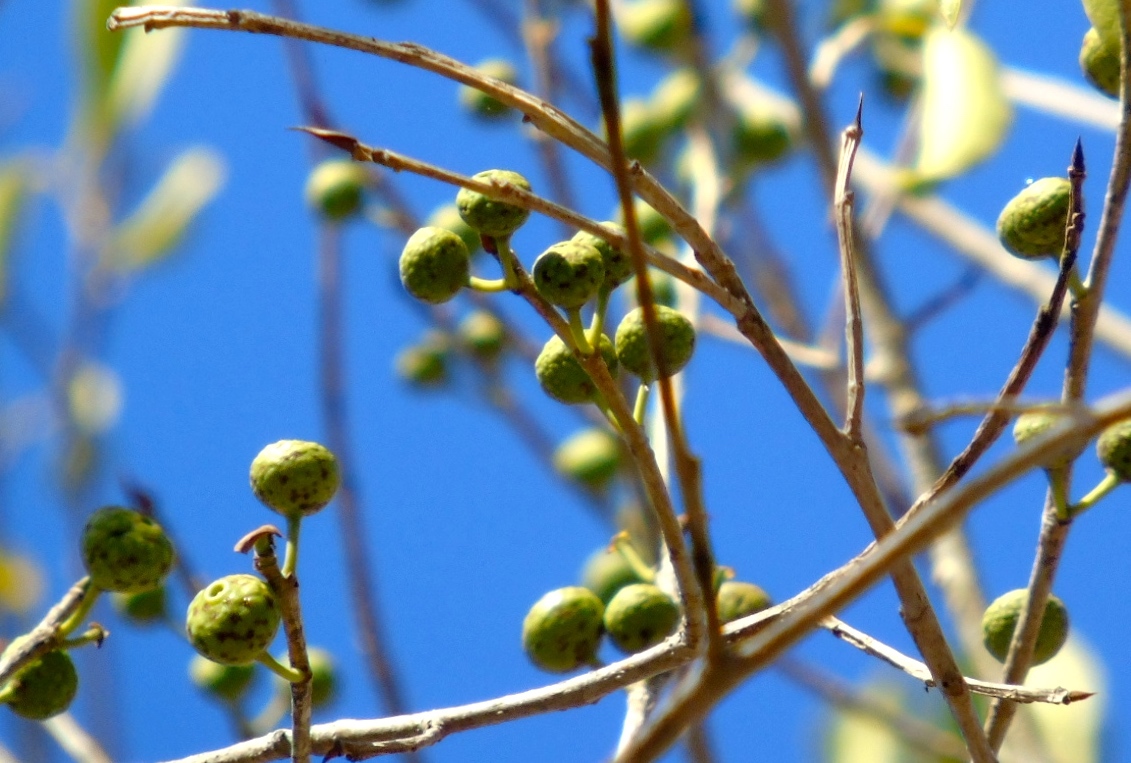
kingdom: Plantae
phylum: Tracheophyta
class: Magnoliopsida
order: Rosales
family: Moraceae
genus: Ficus
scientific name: Ficus pertusa
